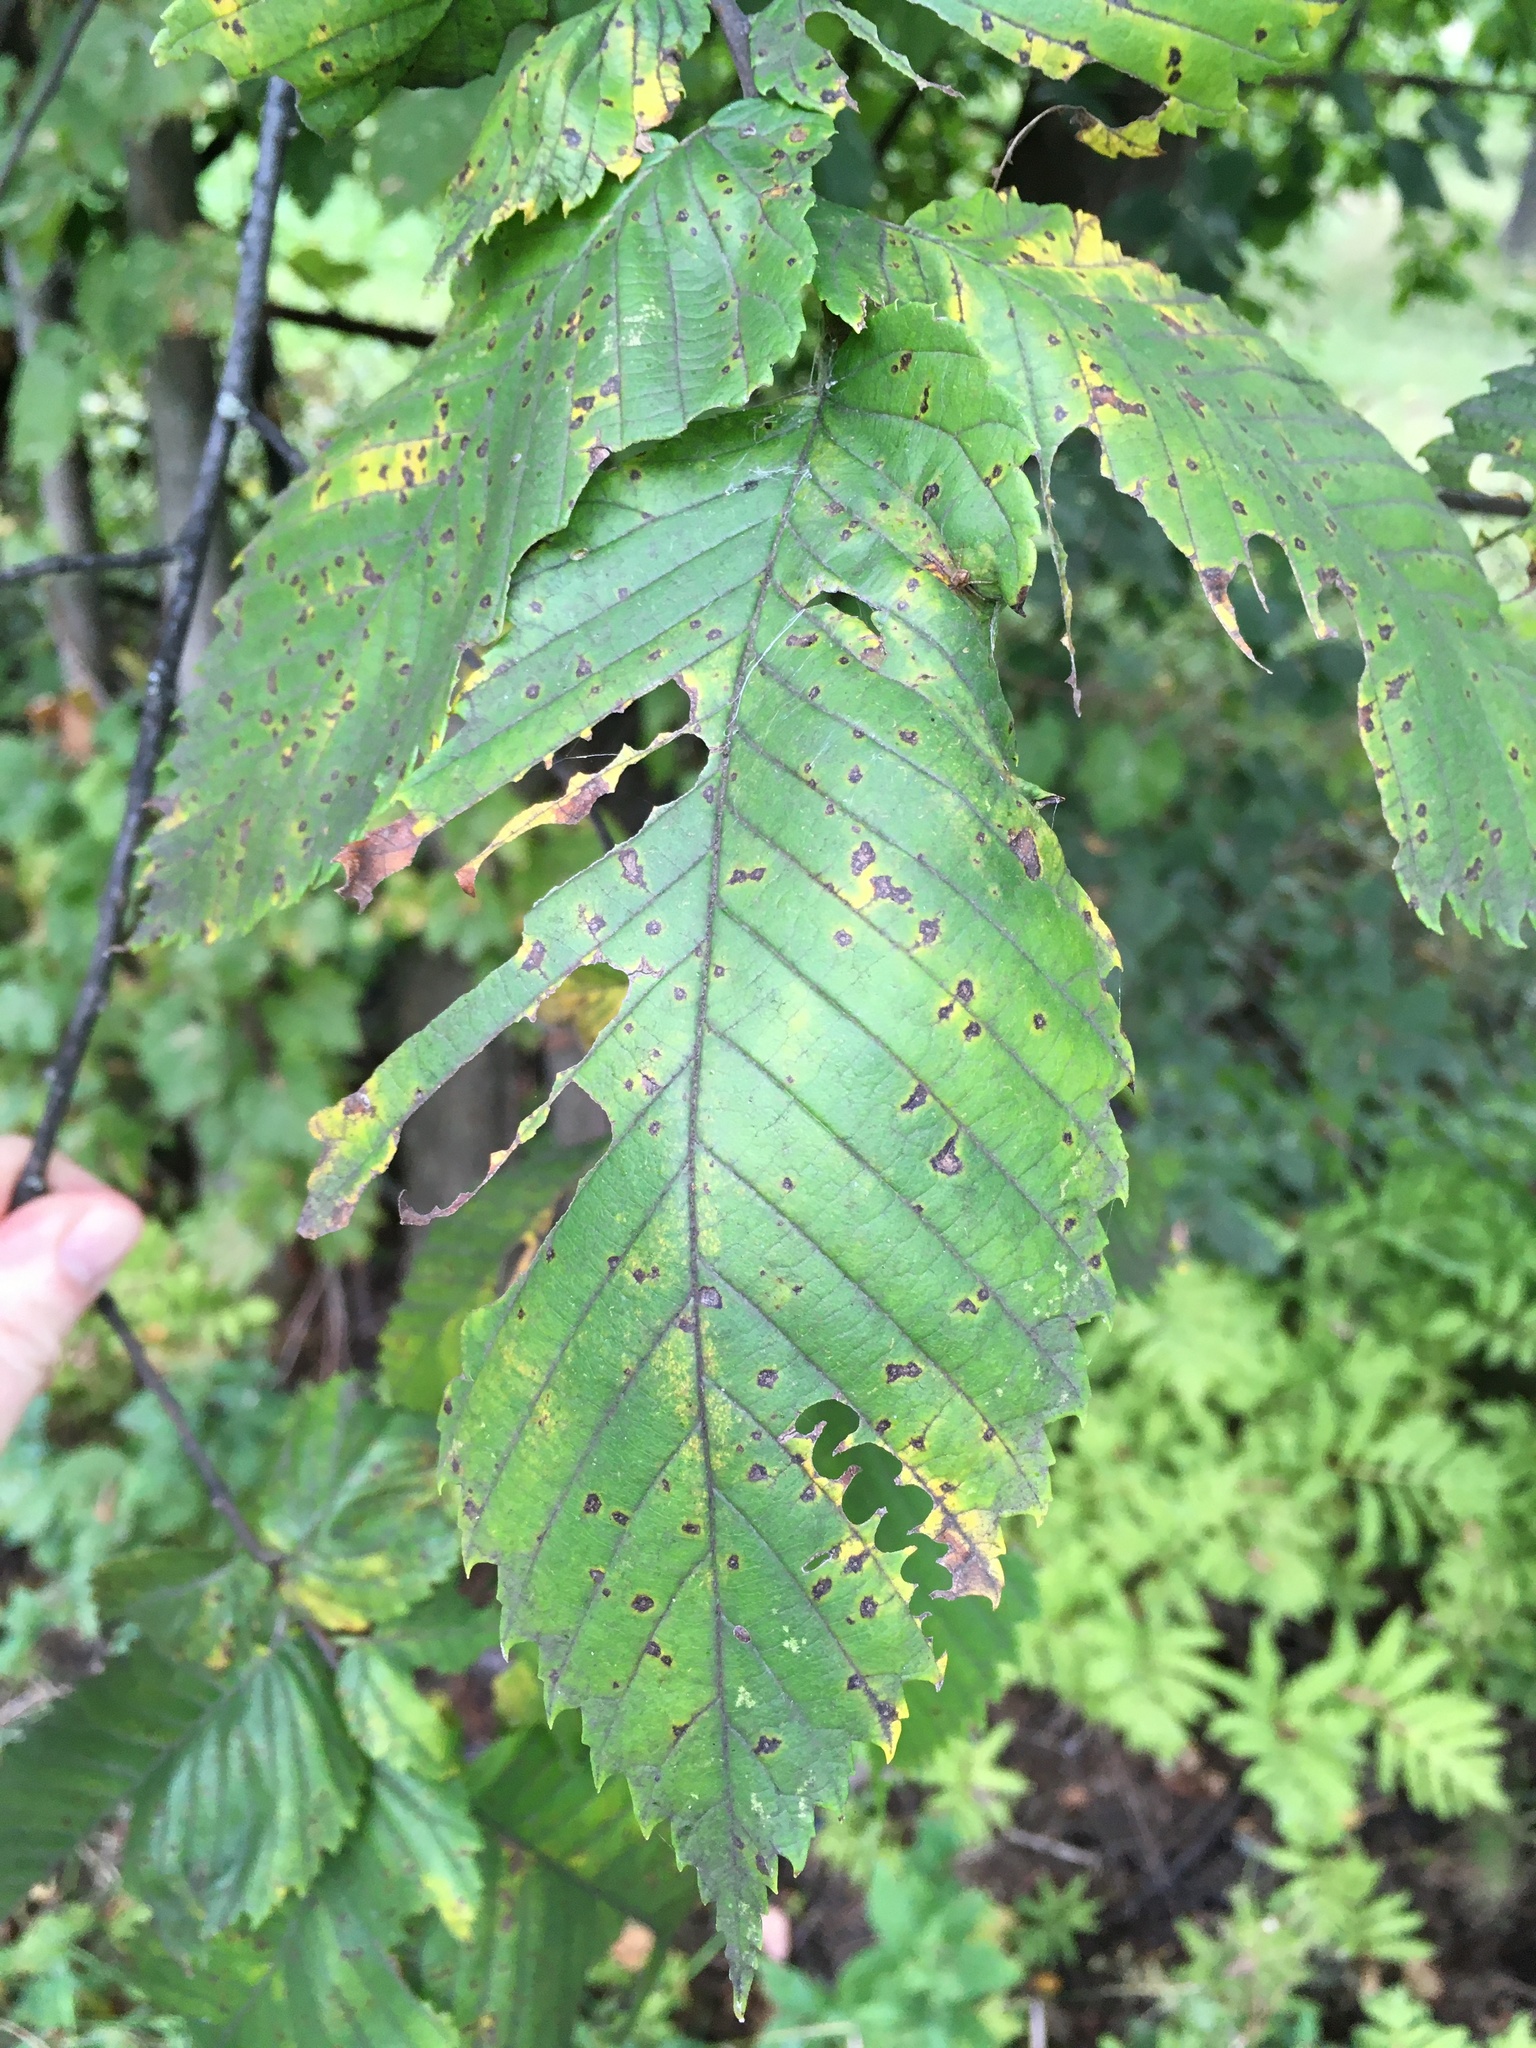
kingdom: Animalia
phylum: Arthropoda
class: Insecta
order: Hymenoptera
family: Argidae
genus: Aproceros
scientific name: Aproceros leucopoda
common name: Zig-zag elm sawfly
